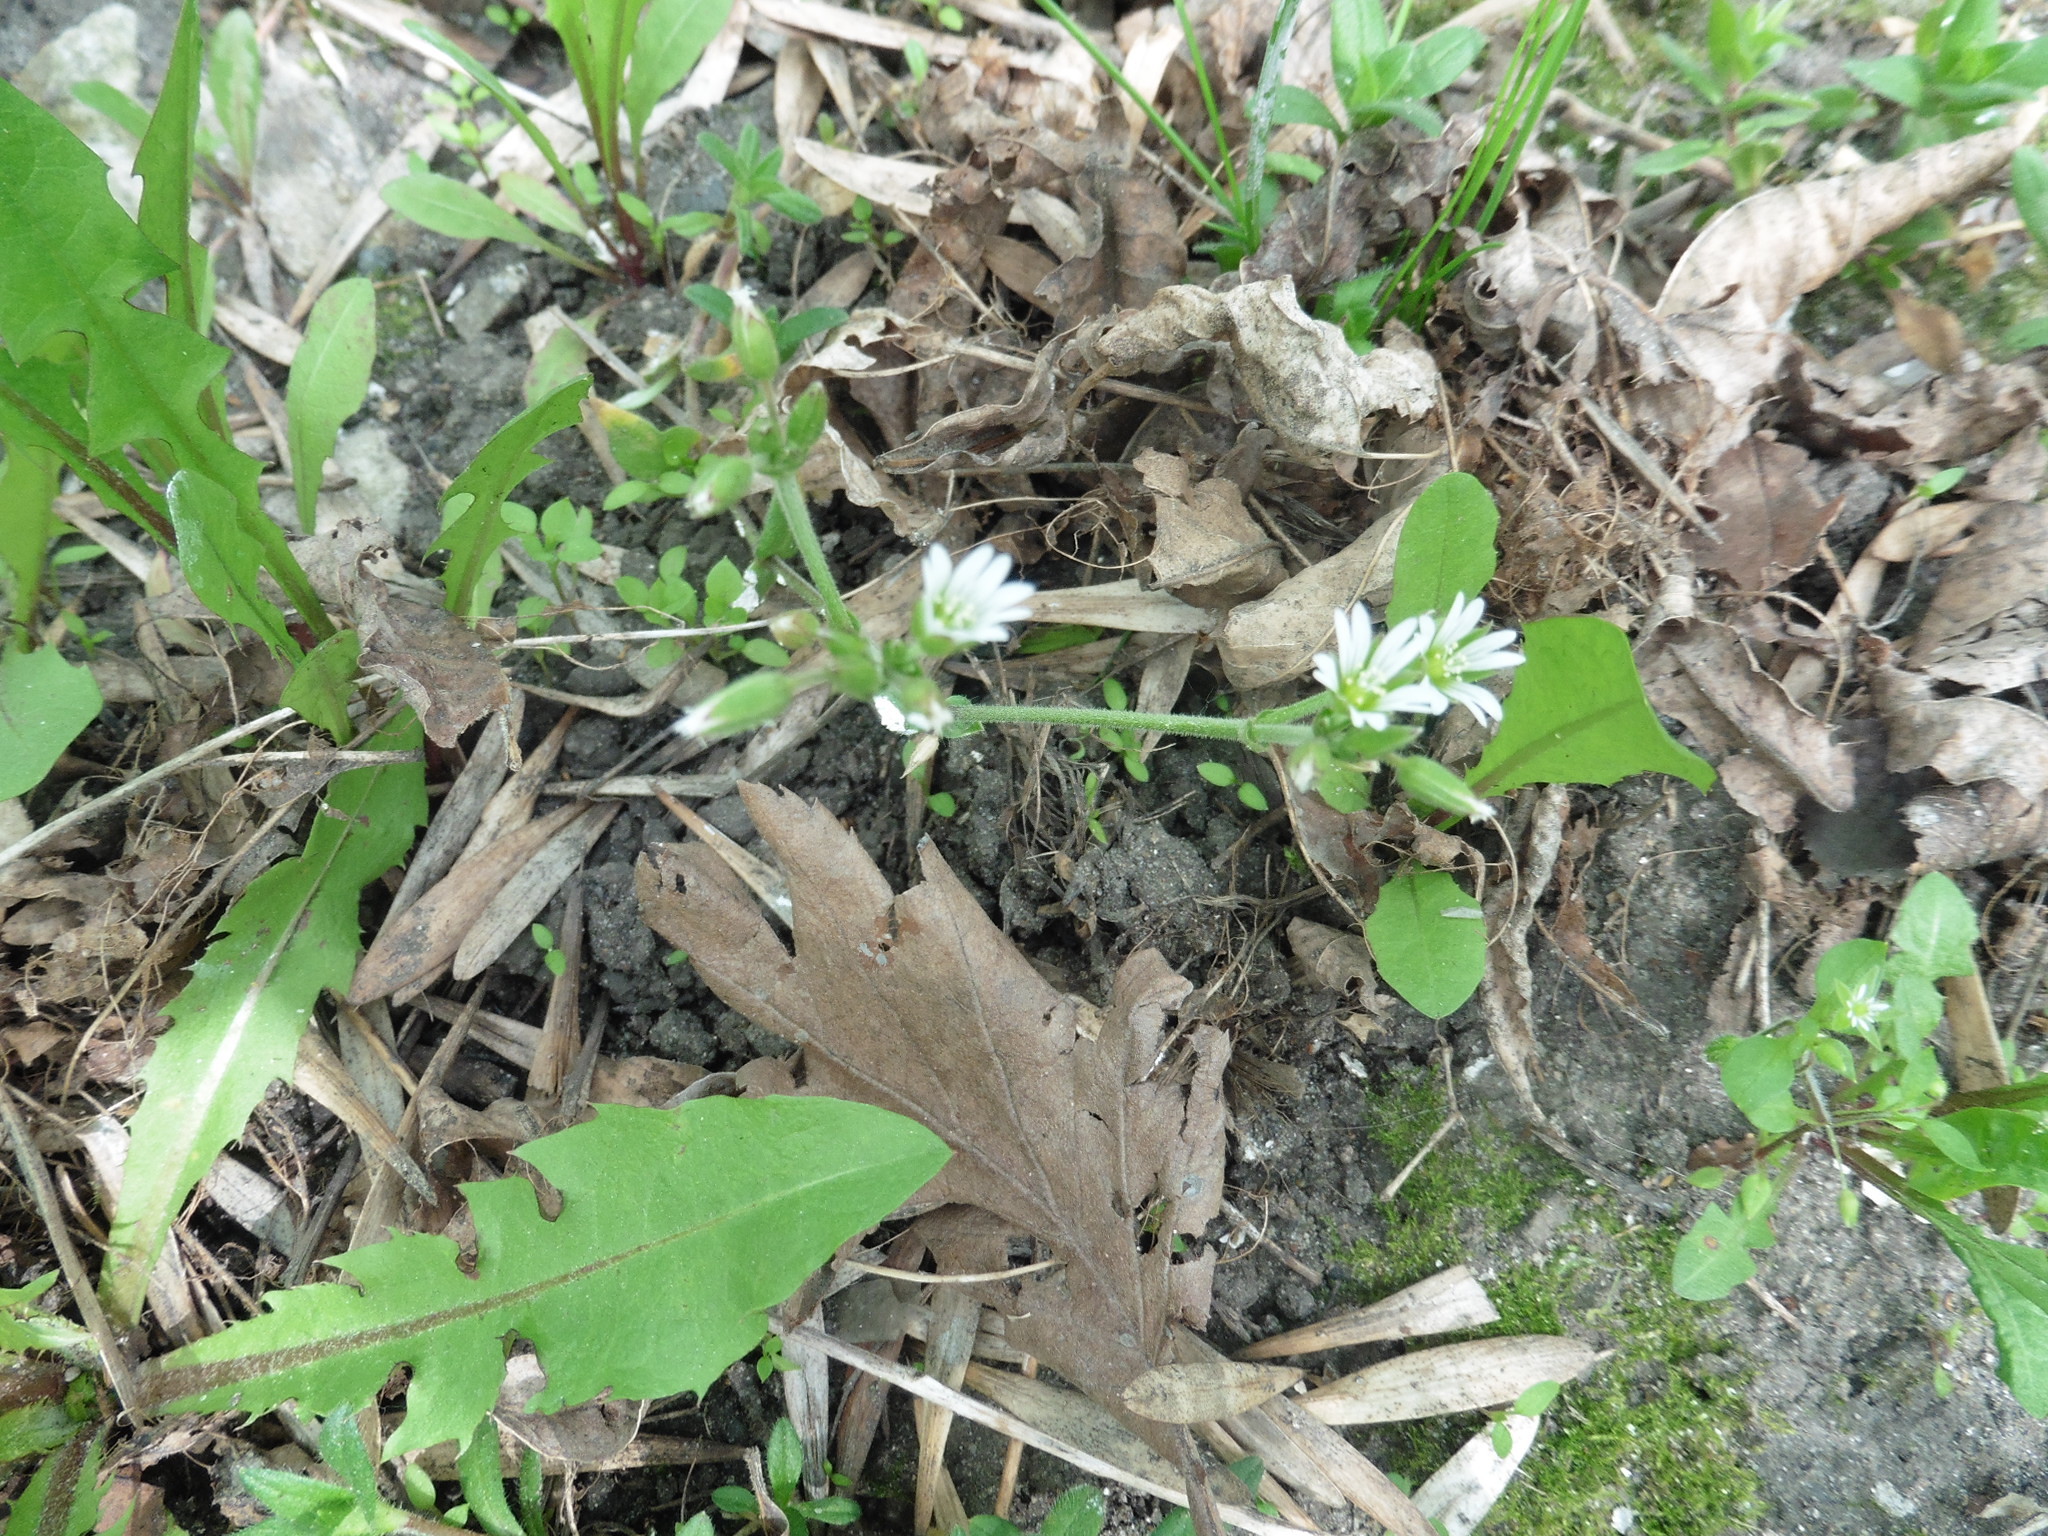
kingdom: Plantae
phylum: Tracheophyta
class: Magnoliopsida
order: Caryophyllales
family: Caryophyllaceae
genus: Cerastium
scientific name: Cerastium holosteoides
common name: Big chickweed
